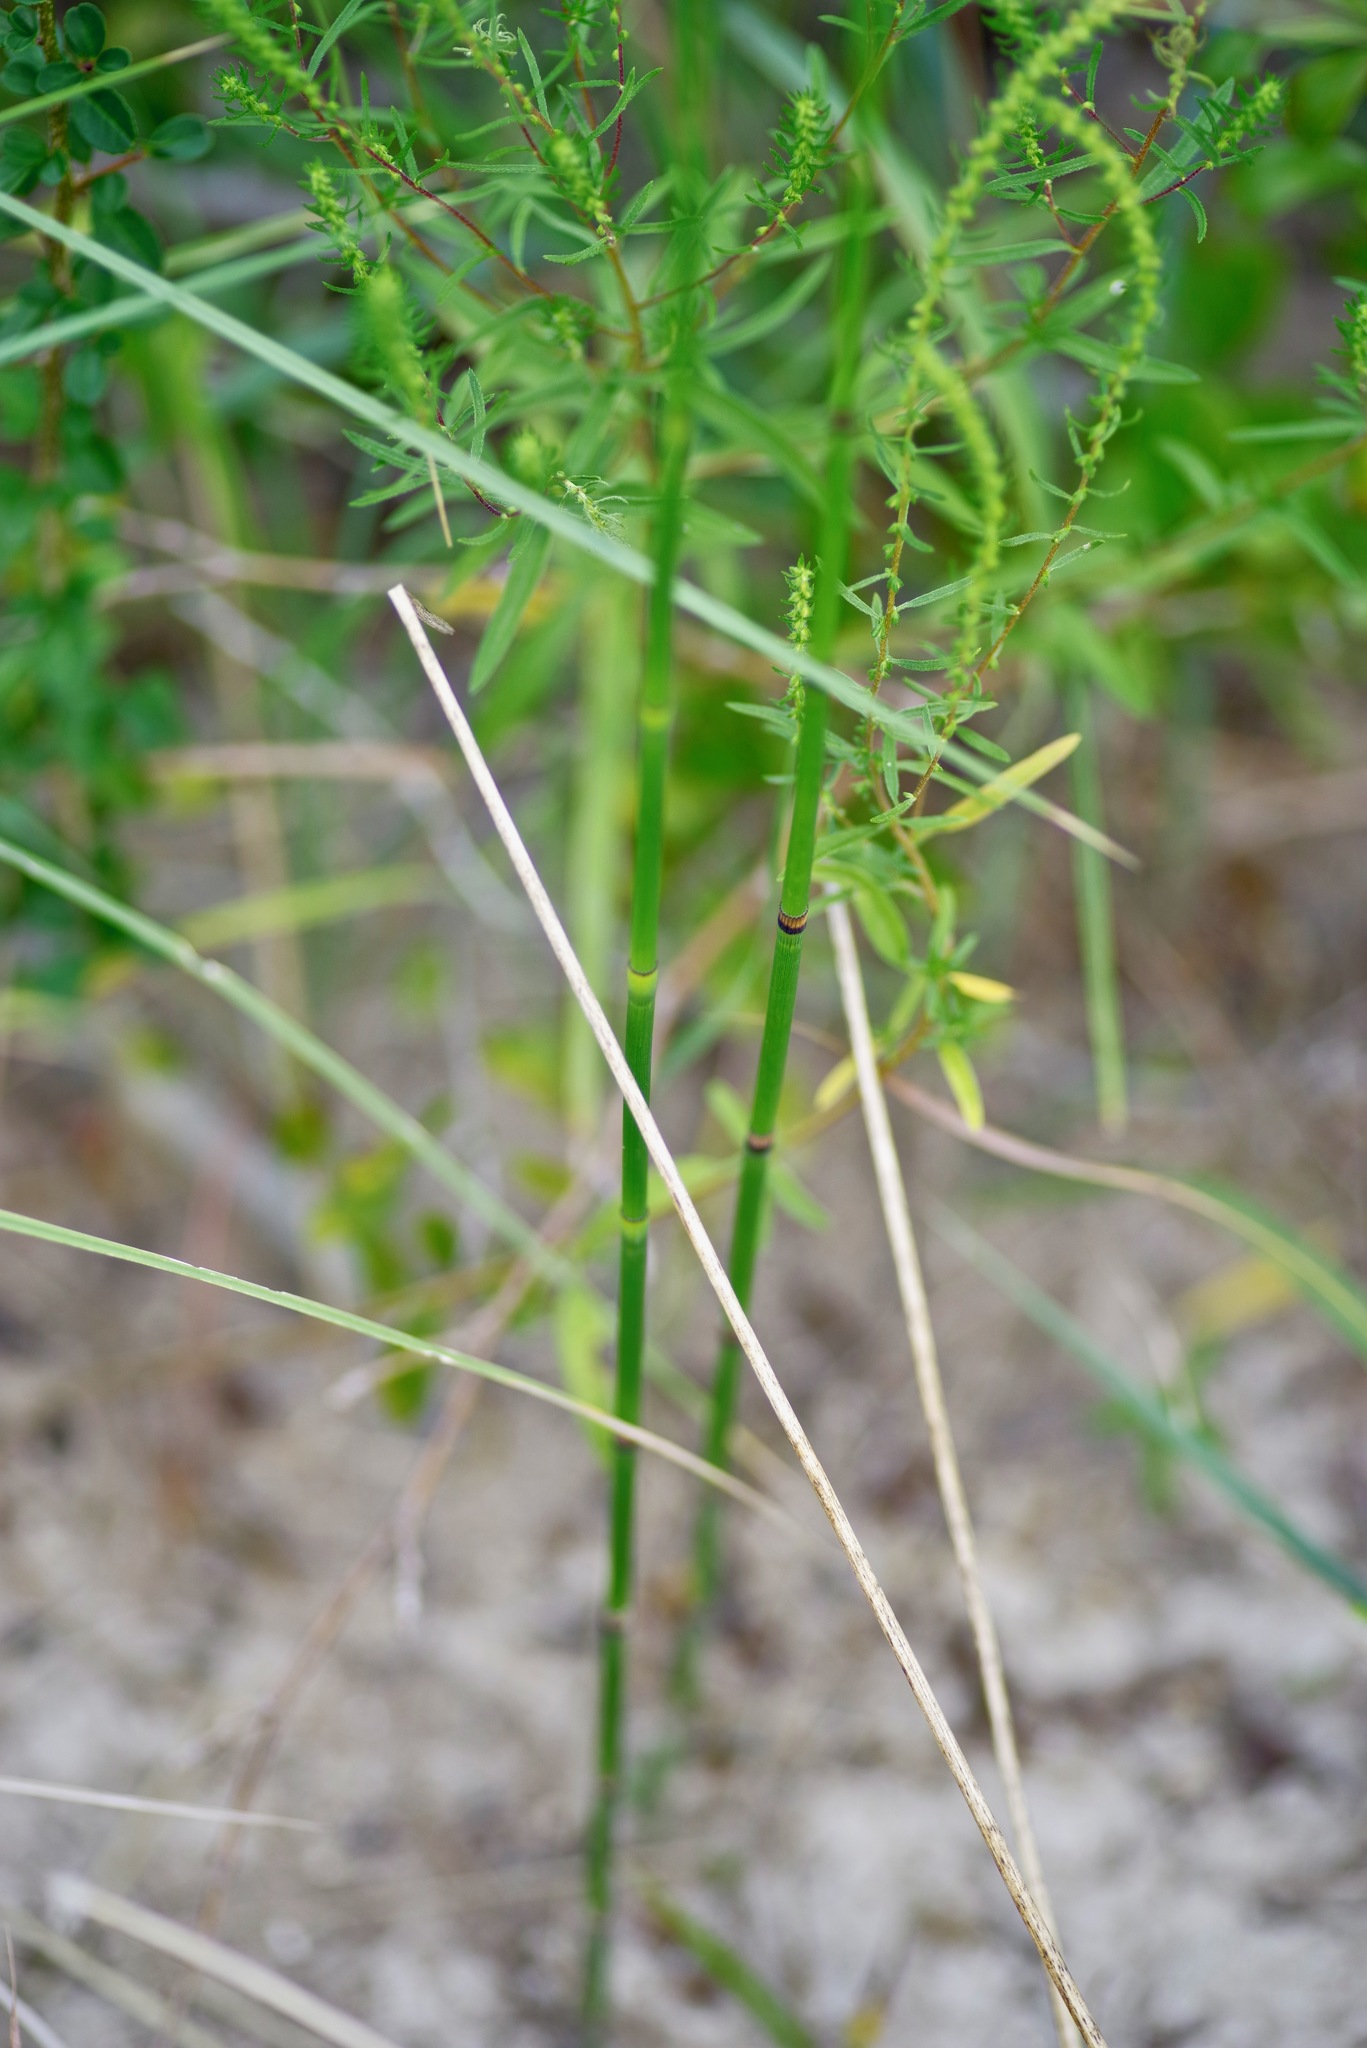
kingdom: Plantae
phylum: Tracheophyta
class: Polypodiopsida
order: Equisetales
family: Equisetaceae
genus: Equisetum
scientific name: Equisetum praealtum
